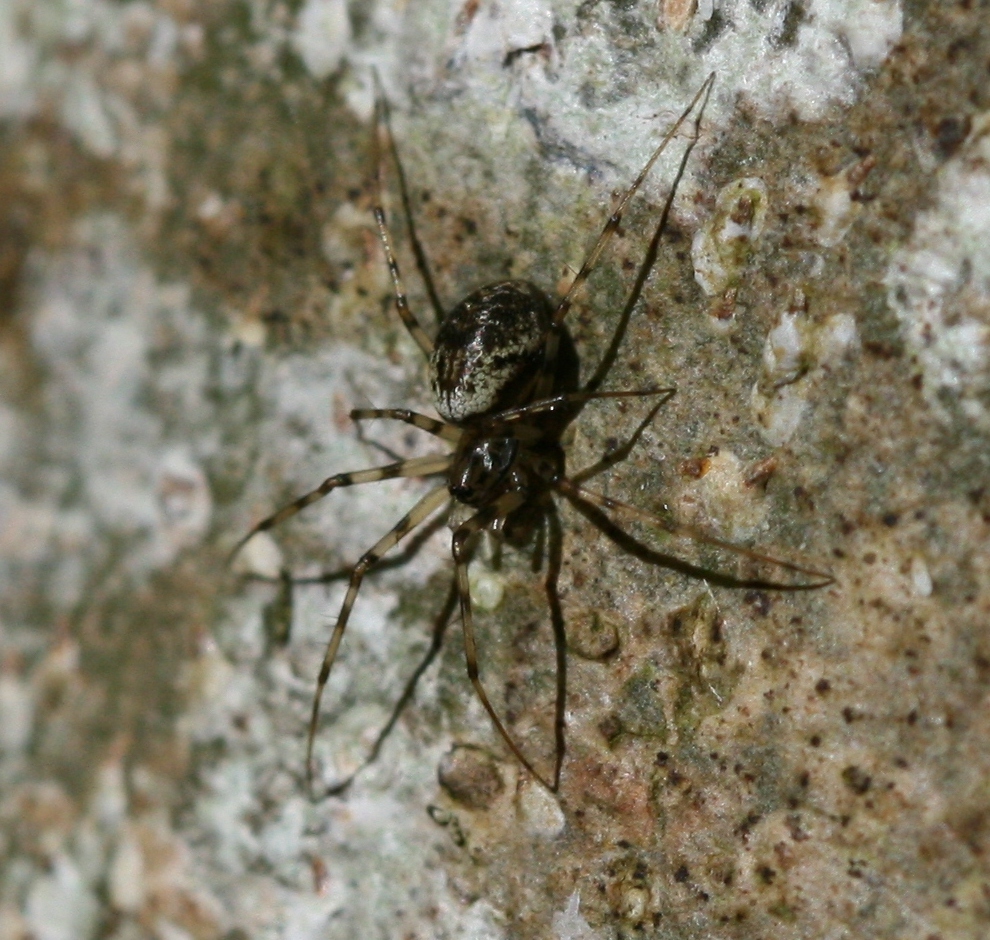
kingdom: Animalia
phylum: Arthropoda
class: Arachnida
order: Araneae
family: Linyphiidae
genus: Drapetisca
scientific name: Drapetisca socialis
